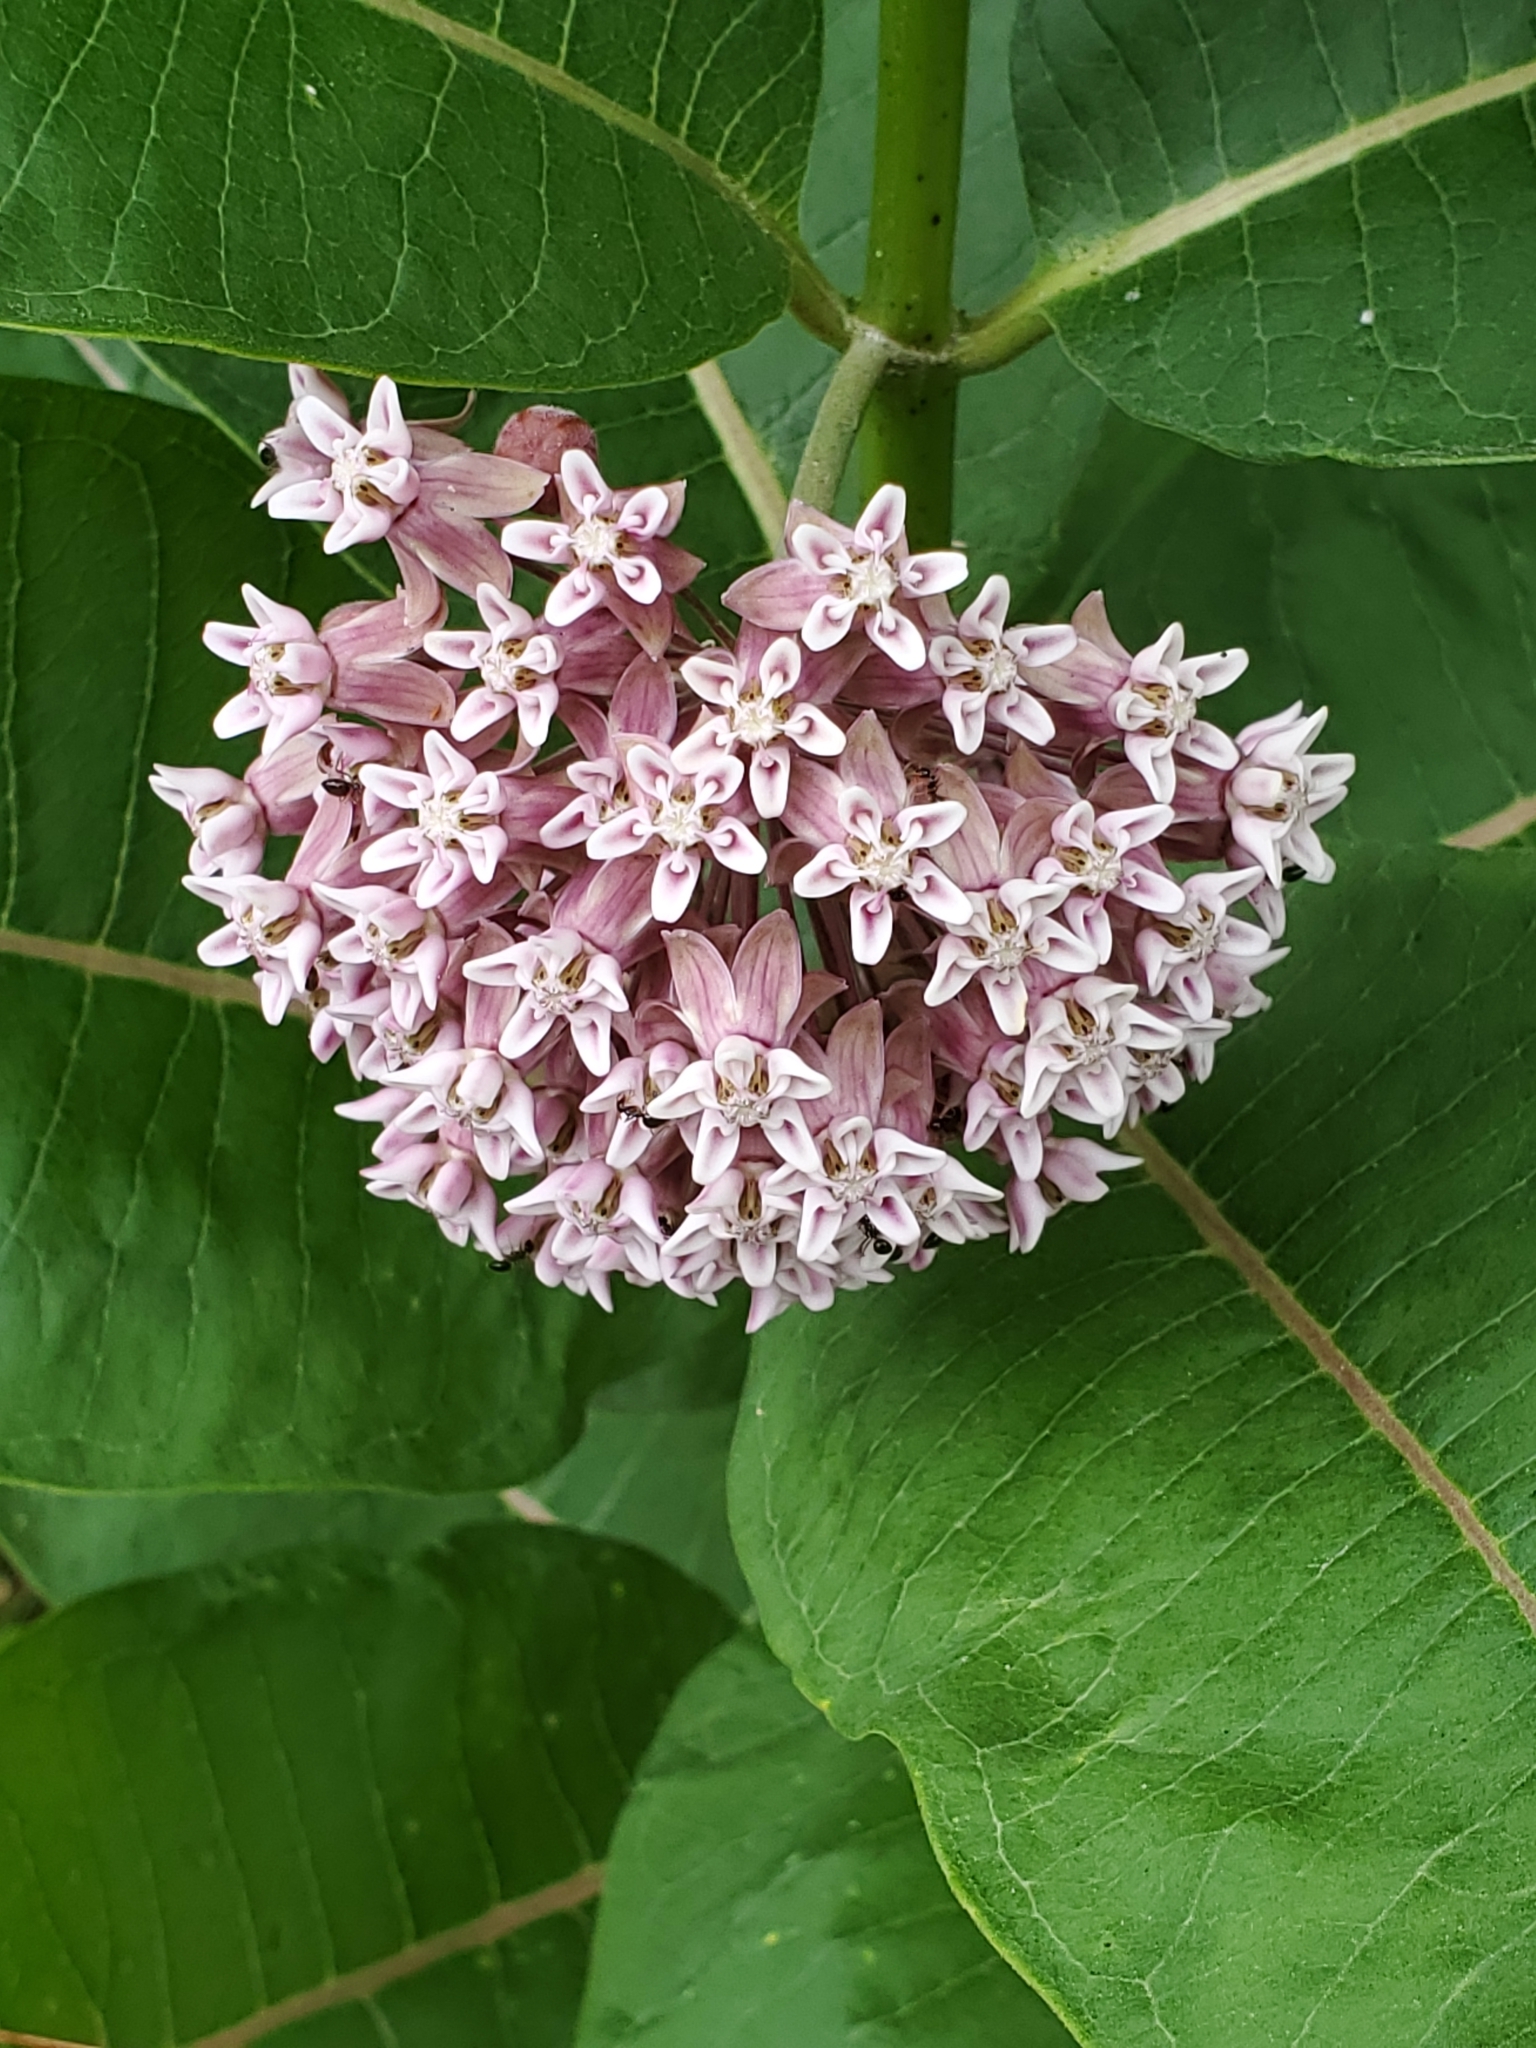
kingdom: Plantae
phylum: Tracheophyta
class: Magnoliopsida
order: Gentianales
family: Apocynaceae
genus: Asclepias
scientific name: Asclepias syriaca
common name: Common milkweed
